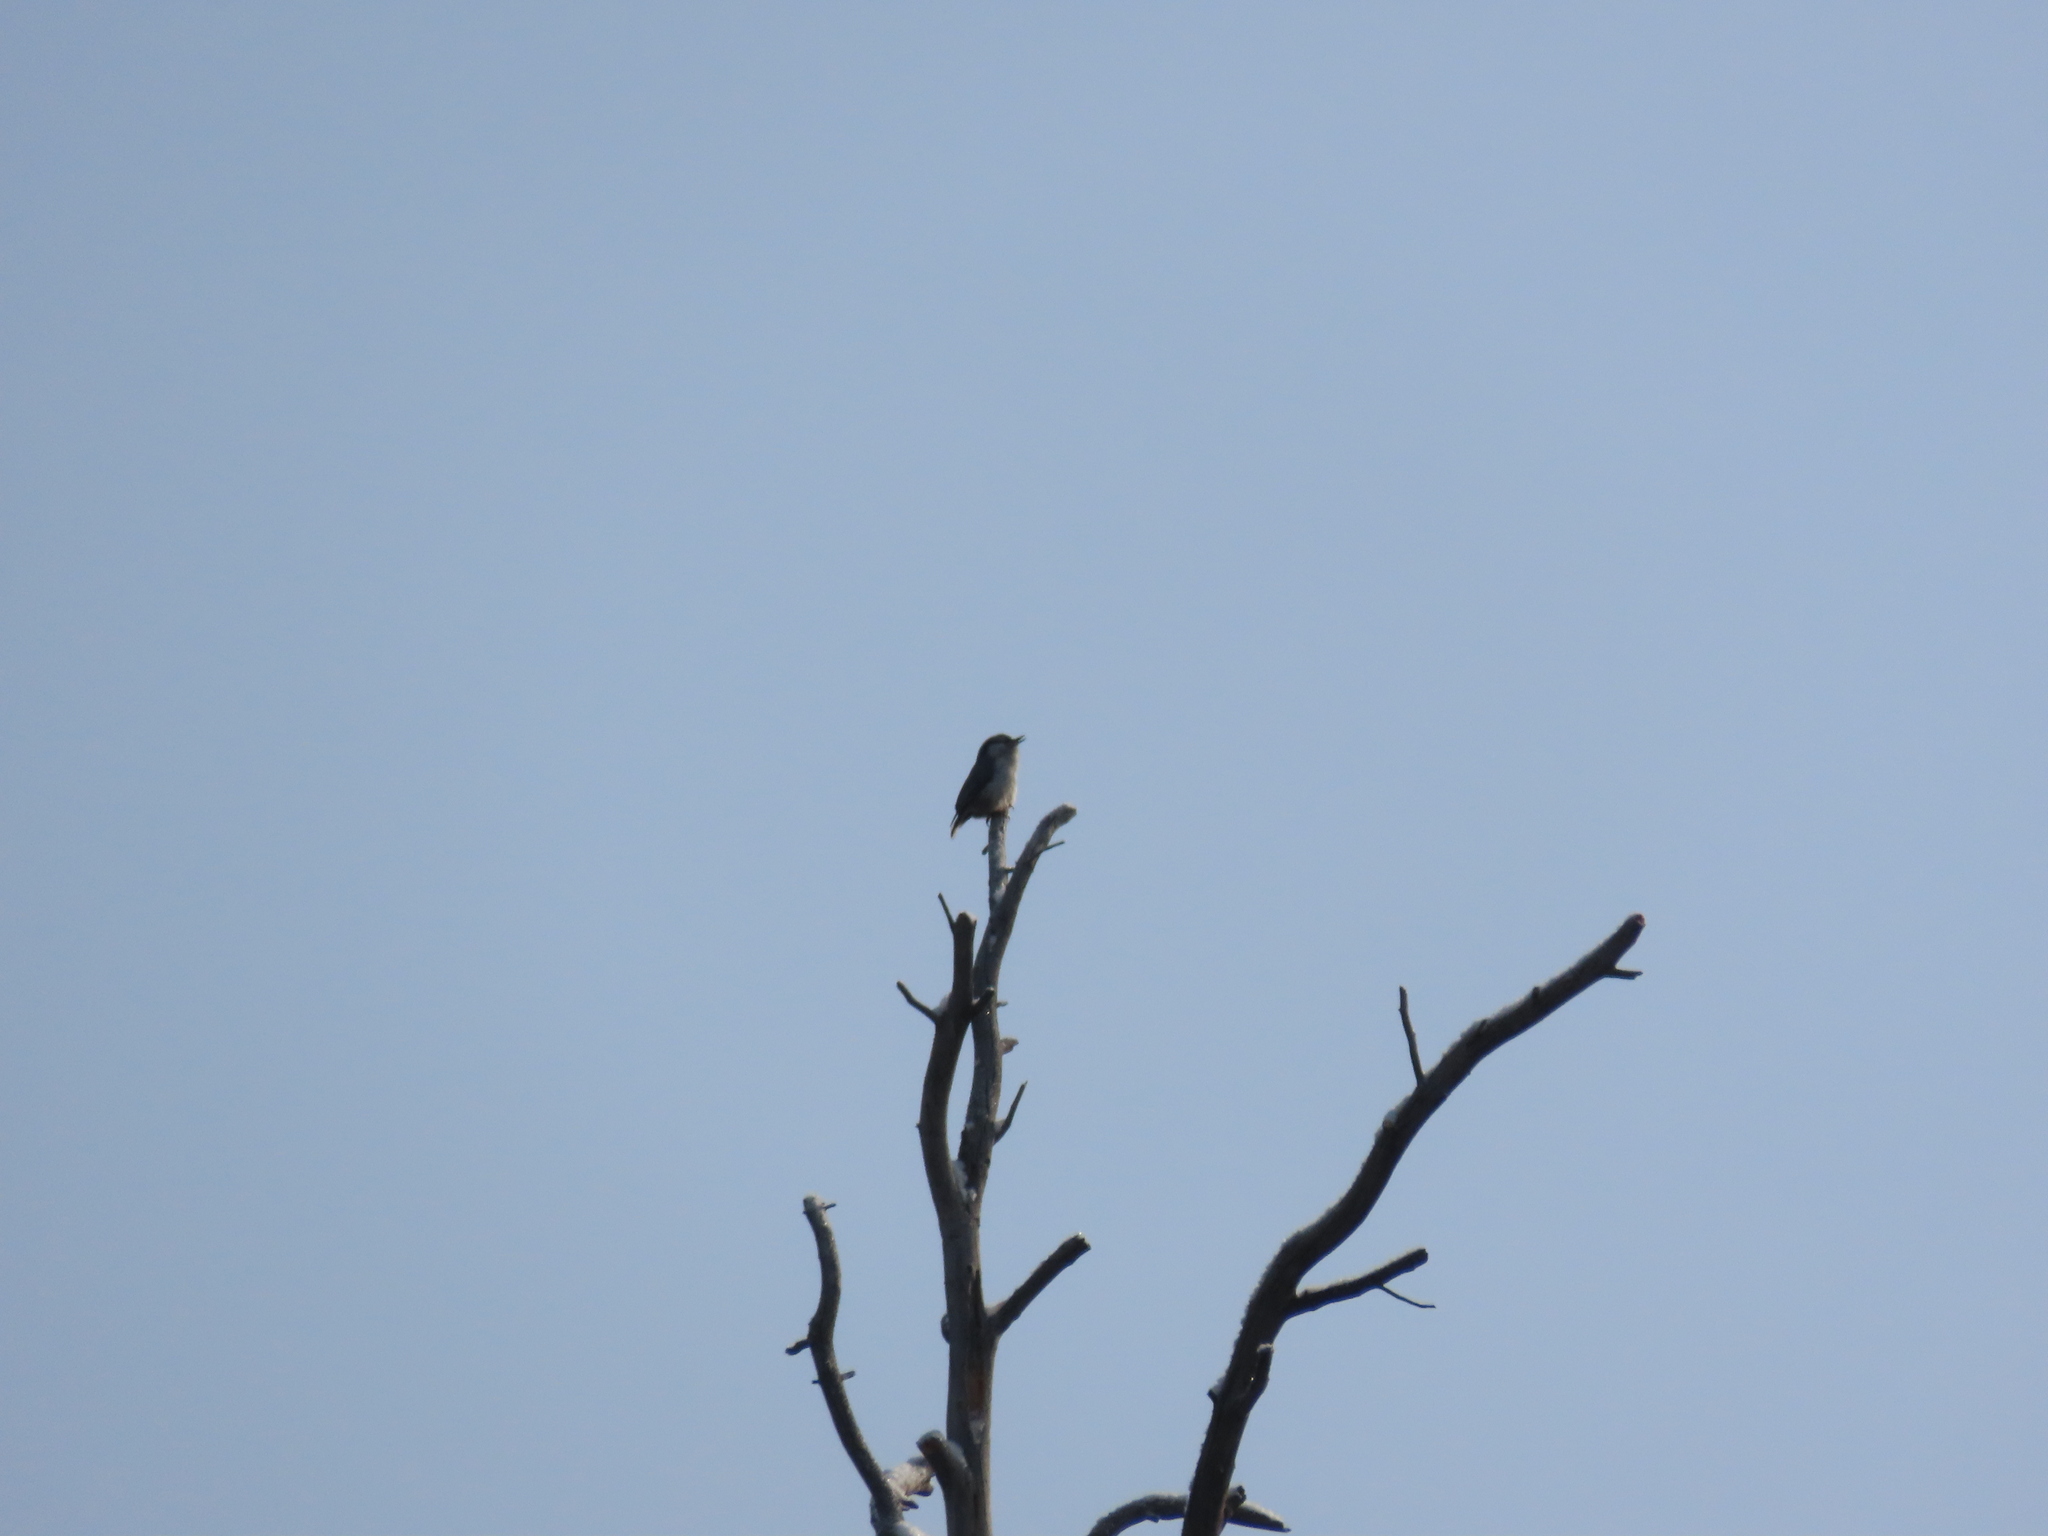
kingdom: Animalia
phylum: Chordata
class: Aves
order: Passeriformes
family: Sittidae
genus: Sitta
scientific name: Sitta europaea
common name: Eurasian nuthatch
